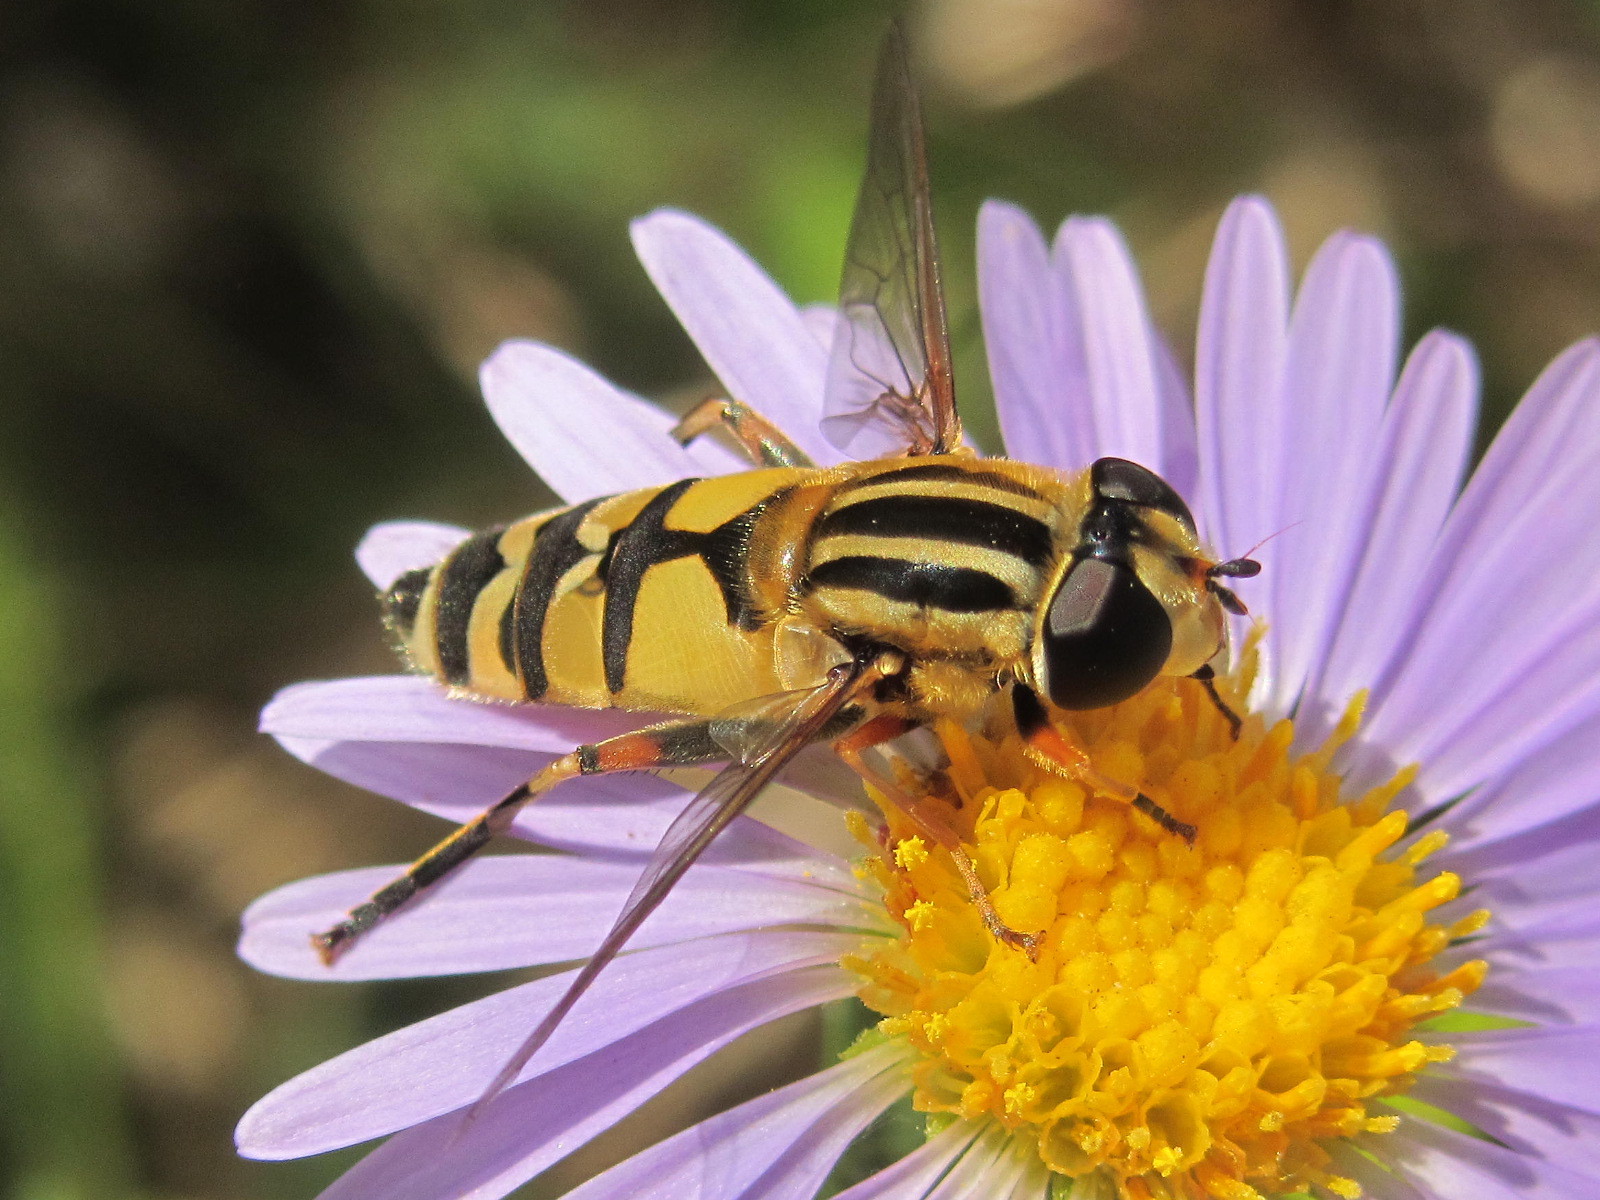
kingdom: Animalia
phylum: Arthropoda
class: Insecta
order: Diptera
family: Syrphidae
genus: Helophilus
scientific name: Helophilus trivittatus
